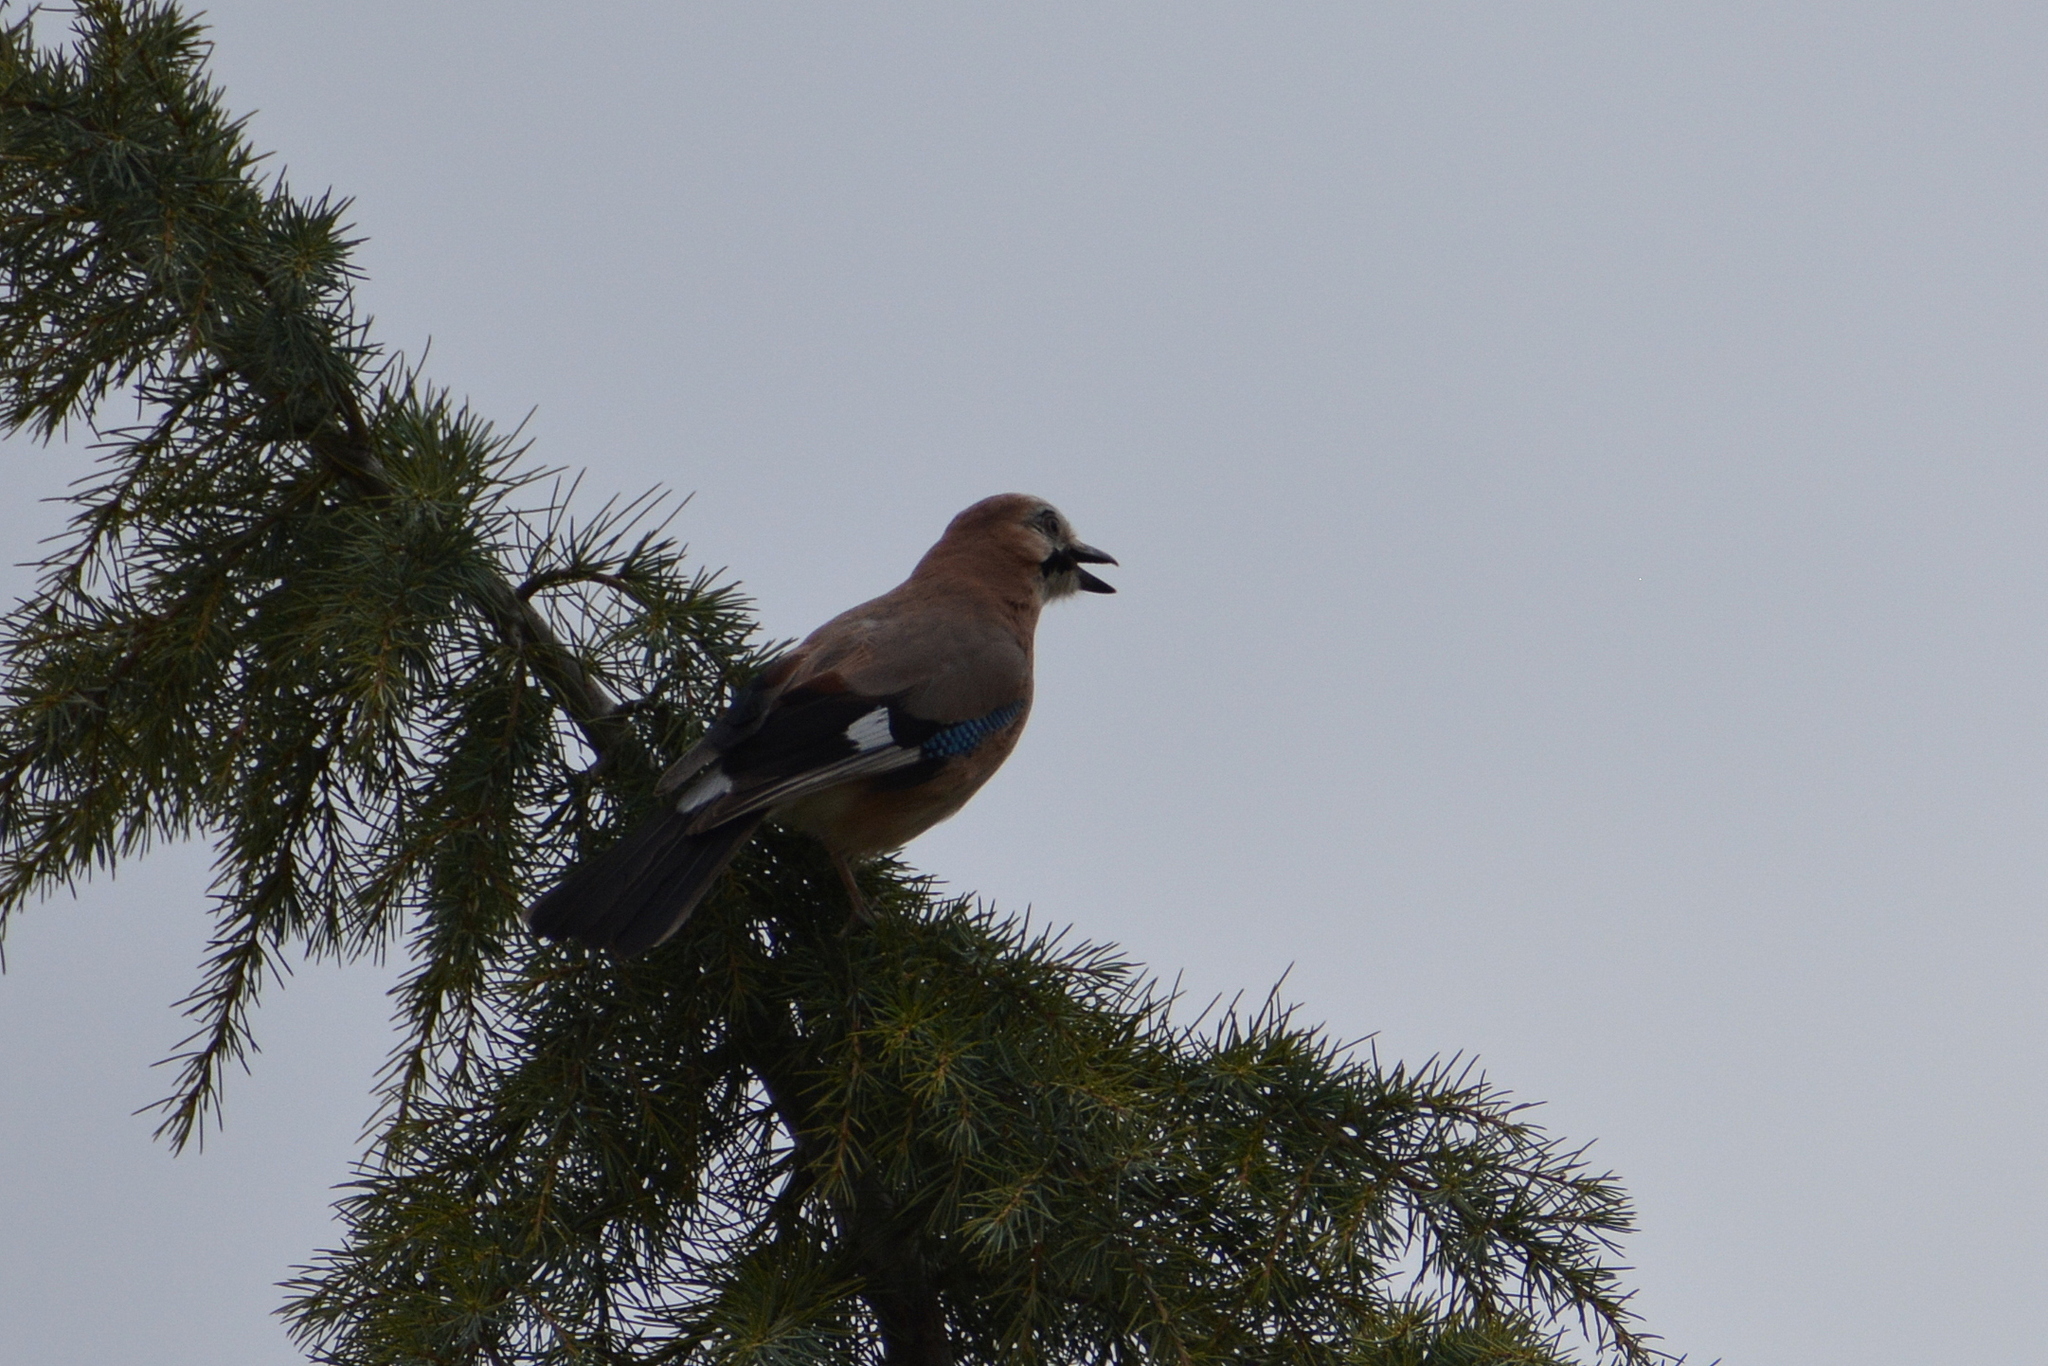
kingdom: Animalia
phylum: Chordata
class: Aves
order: Passeriformes
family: Corvidae
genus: Garrulus
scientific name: Garrulus glandarius
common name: Eurasian jay
